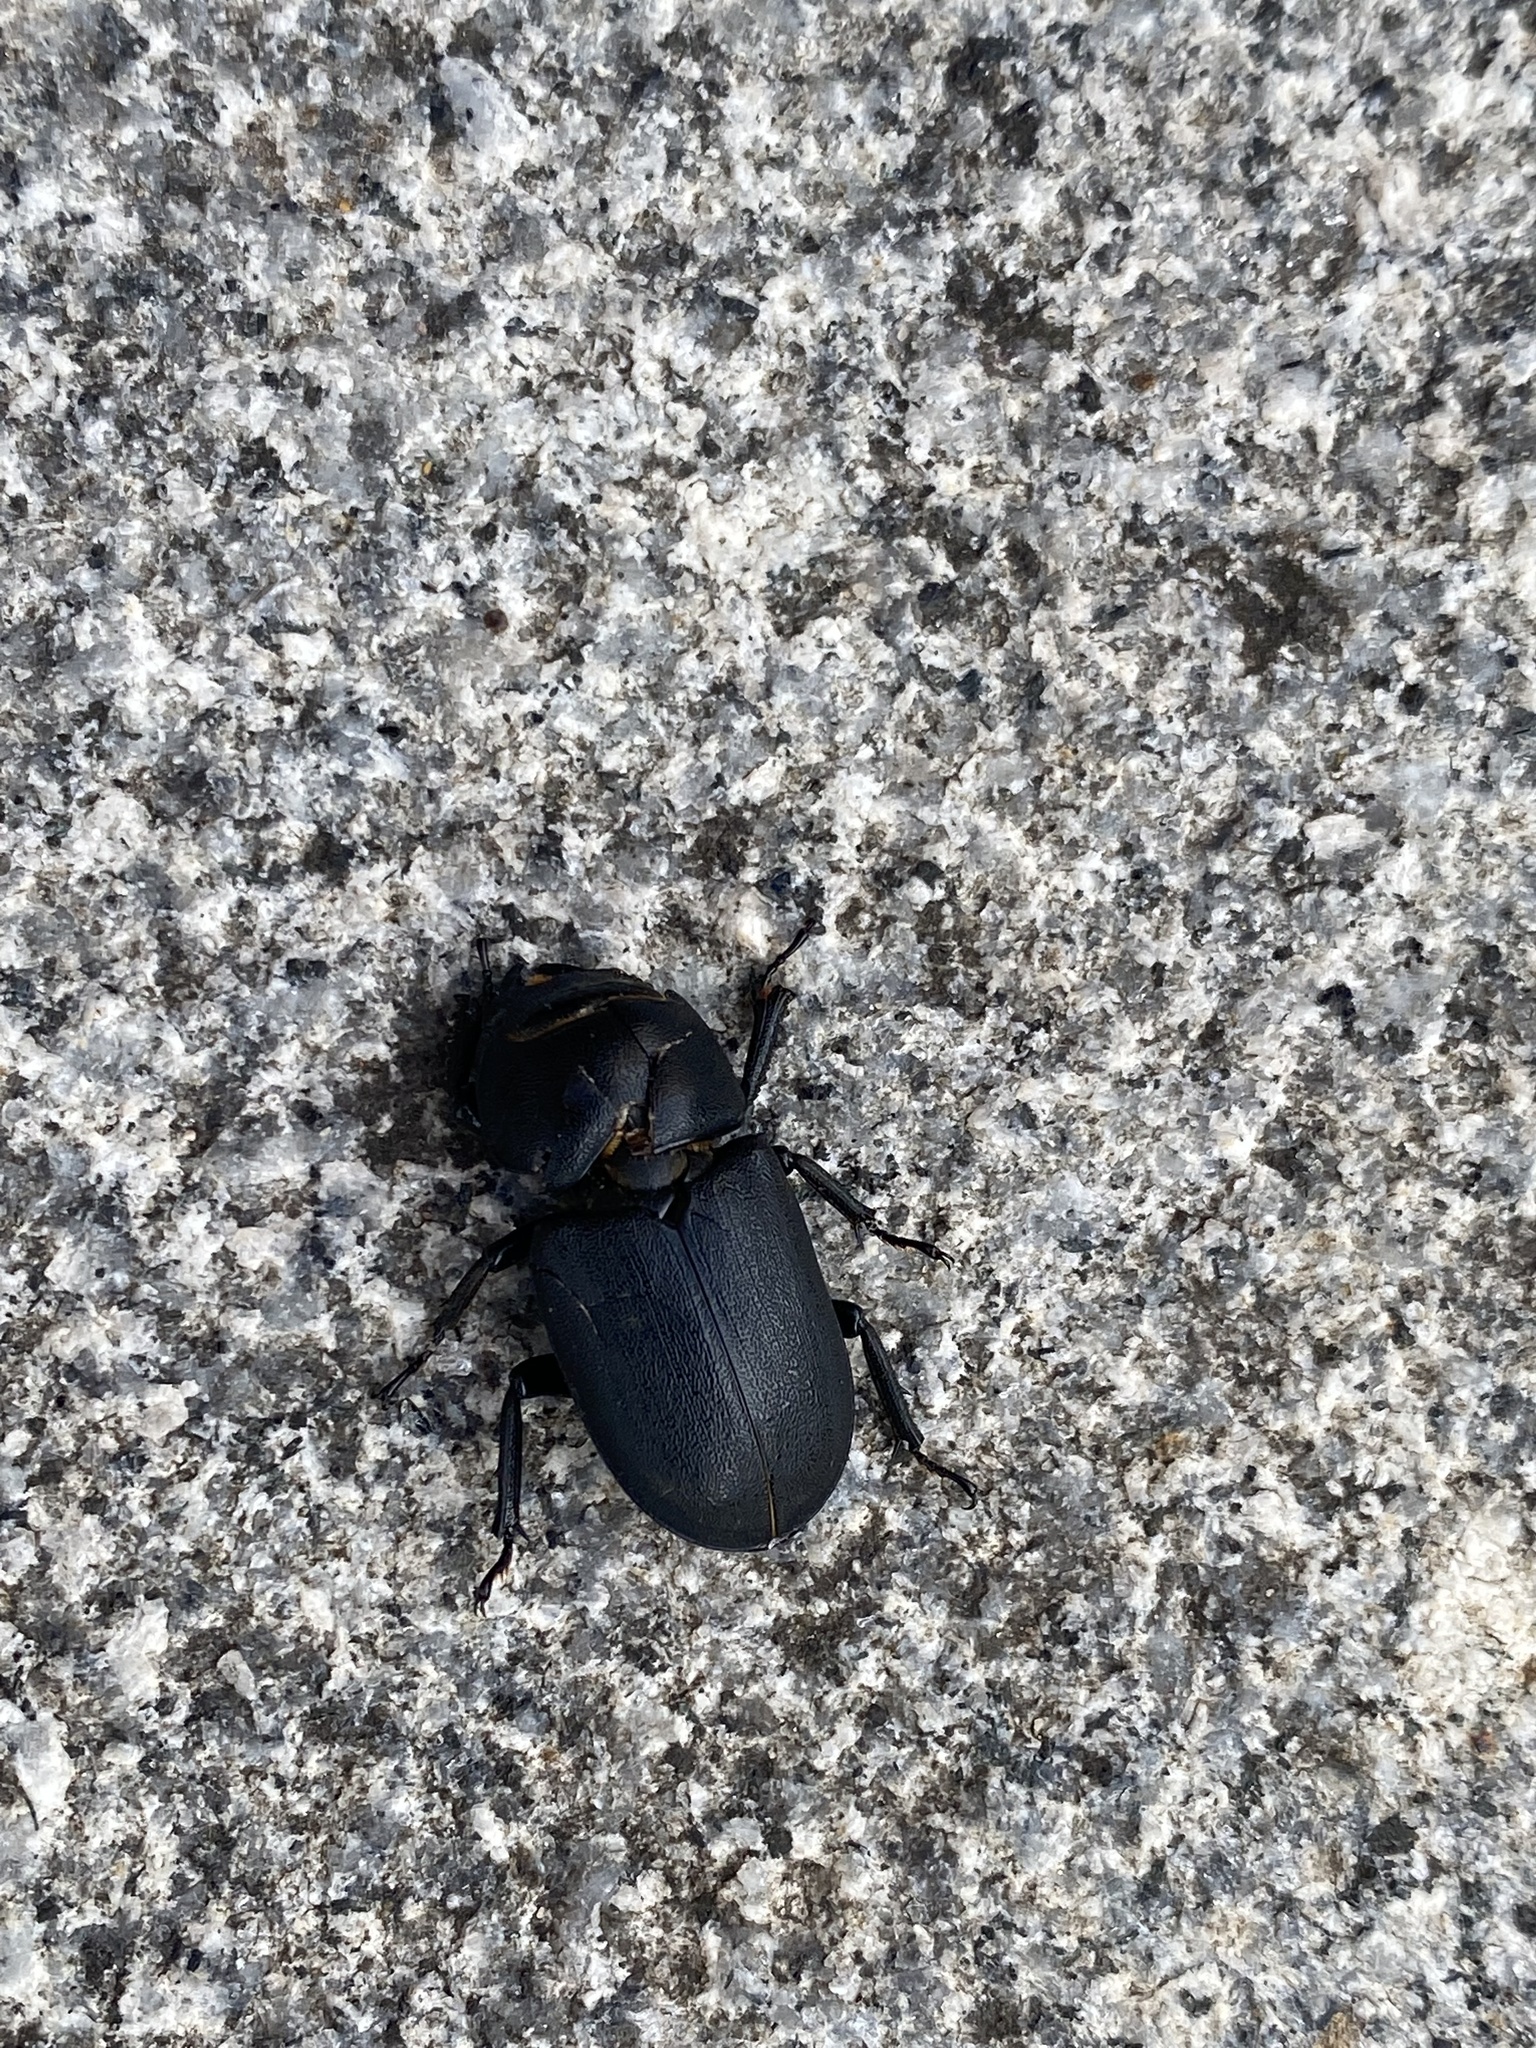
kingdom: Animalia
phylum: Arthropoda
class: Insecta
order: Coleoptera
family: Lucanidae
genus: Dorcus
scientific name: Dorcus parallelipipedus
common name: Lesser stag beetle
